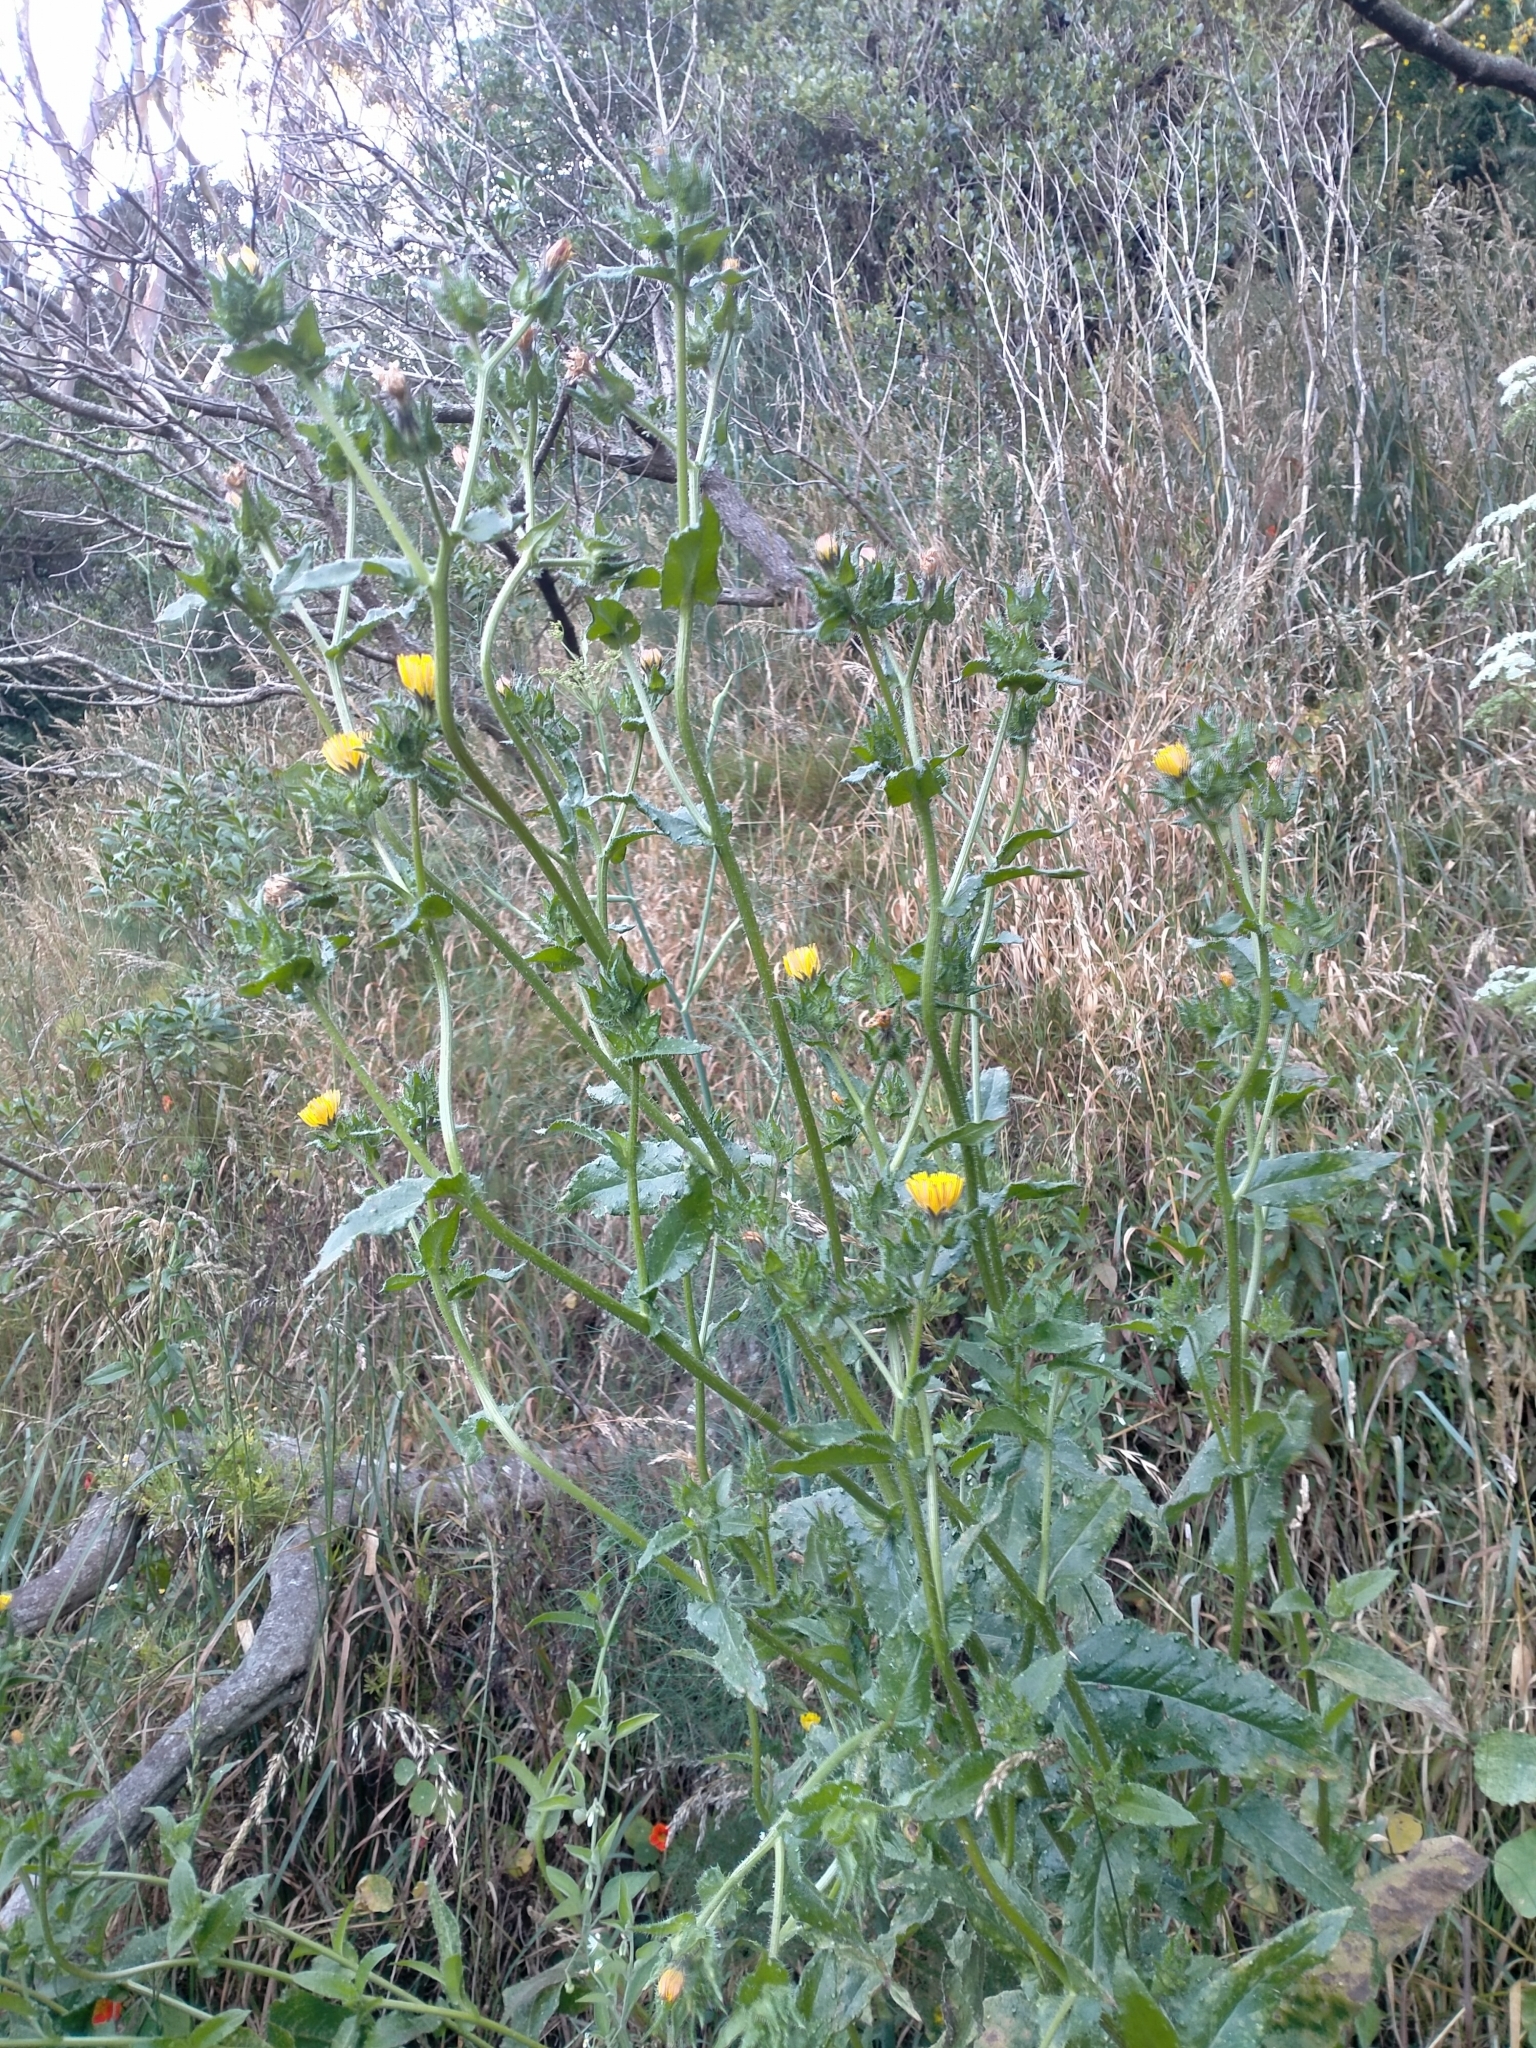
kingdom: Plantae
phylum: Tracheophyta
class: Magnoliopsida
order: Asterales
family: Asteraceae
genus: Helminthotheca
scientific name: Helminthotheca echioides
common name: Ox-tongue
